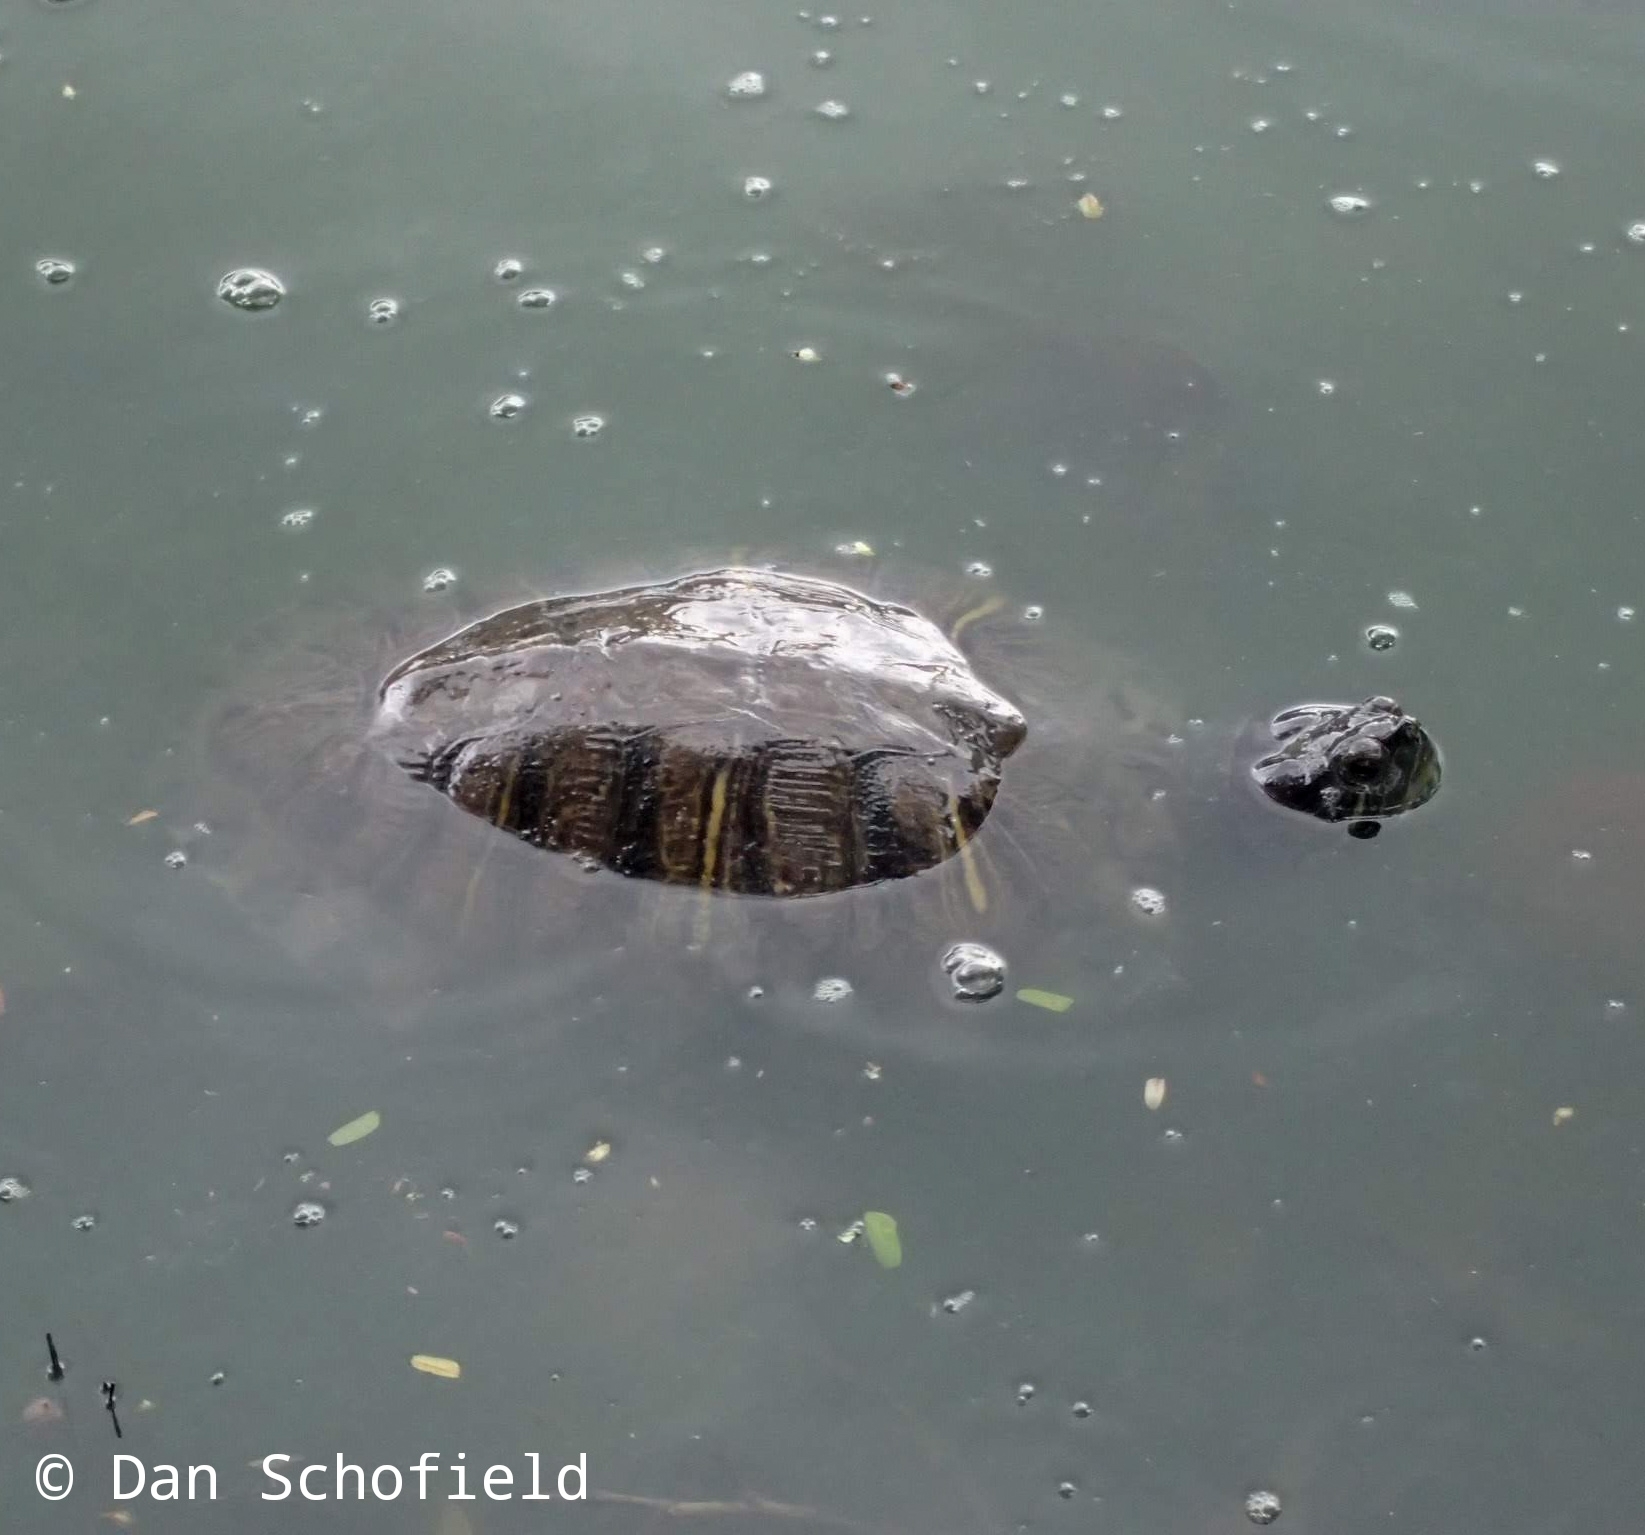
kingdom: Animalia
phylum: Chordata
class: Testudines
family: Emydidae
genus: Trachemys
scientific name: Trachemys scripta
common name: Slider
